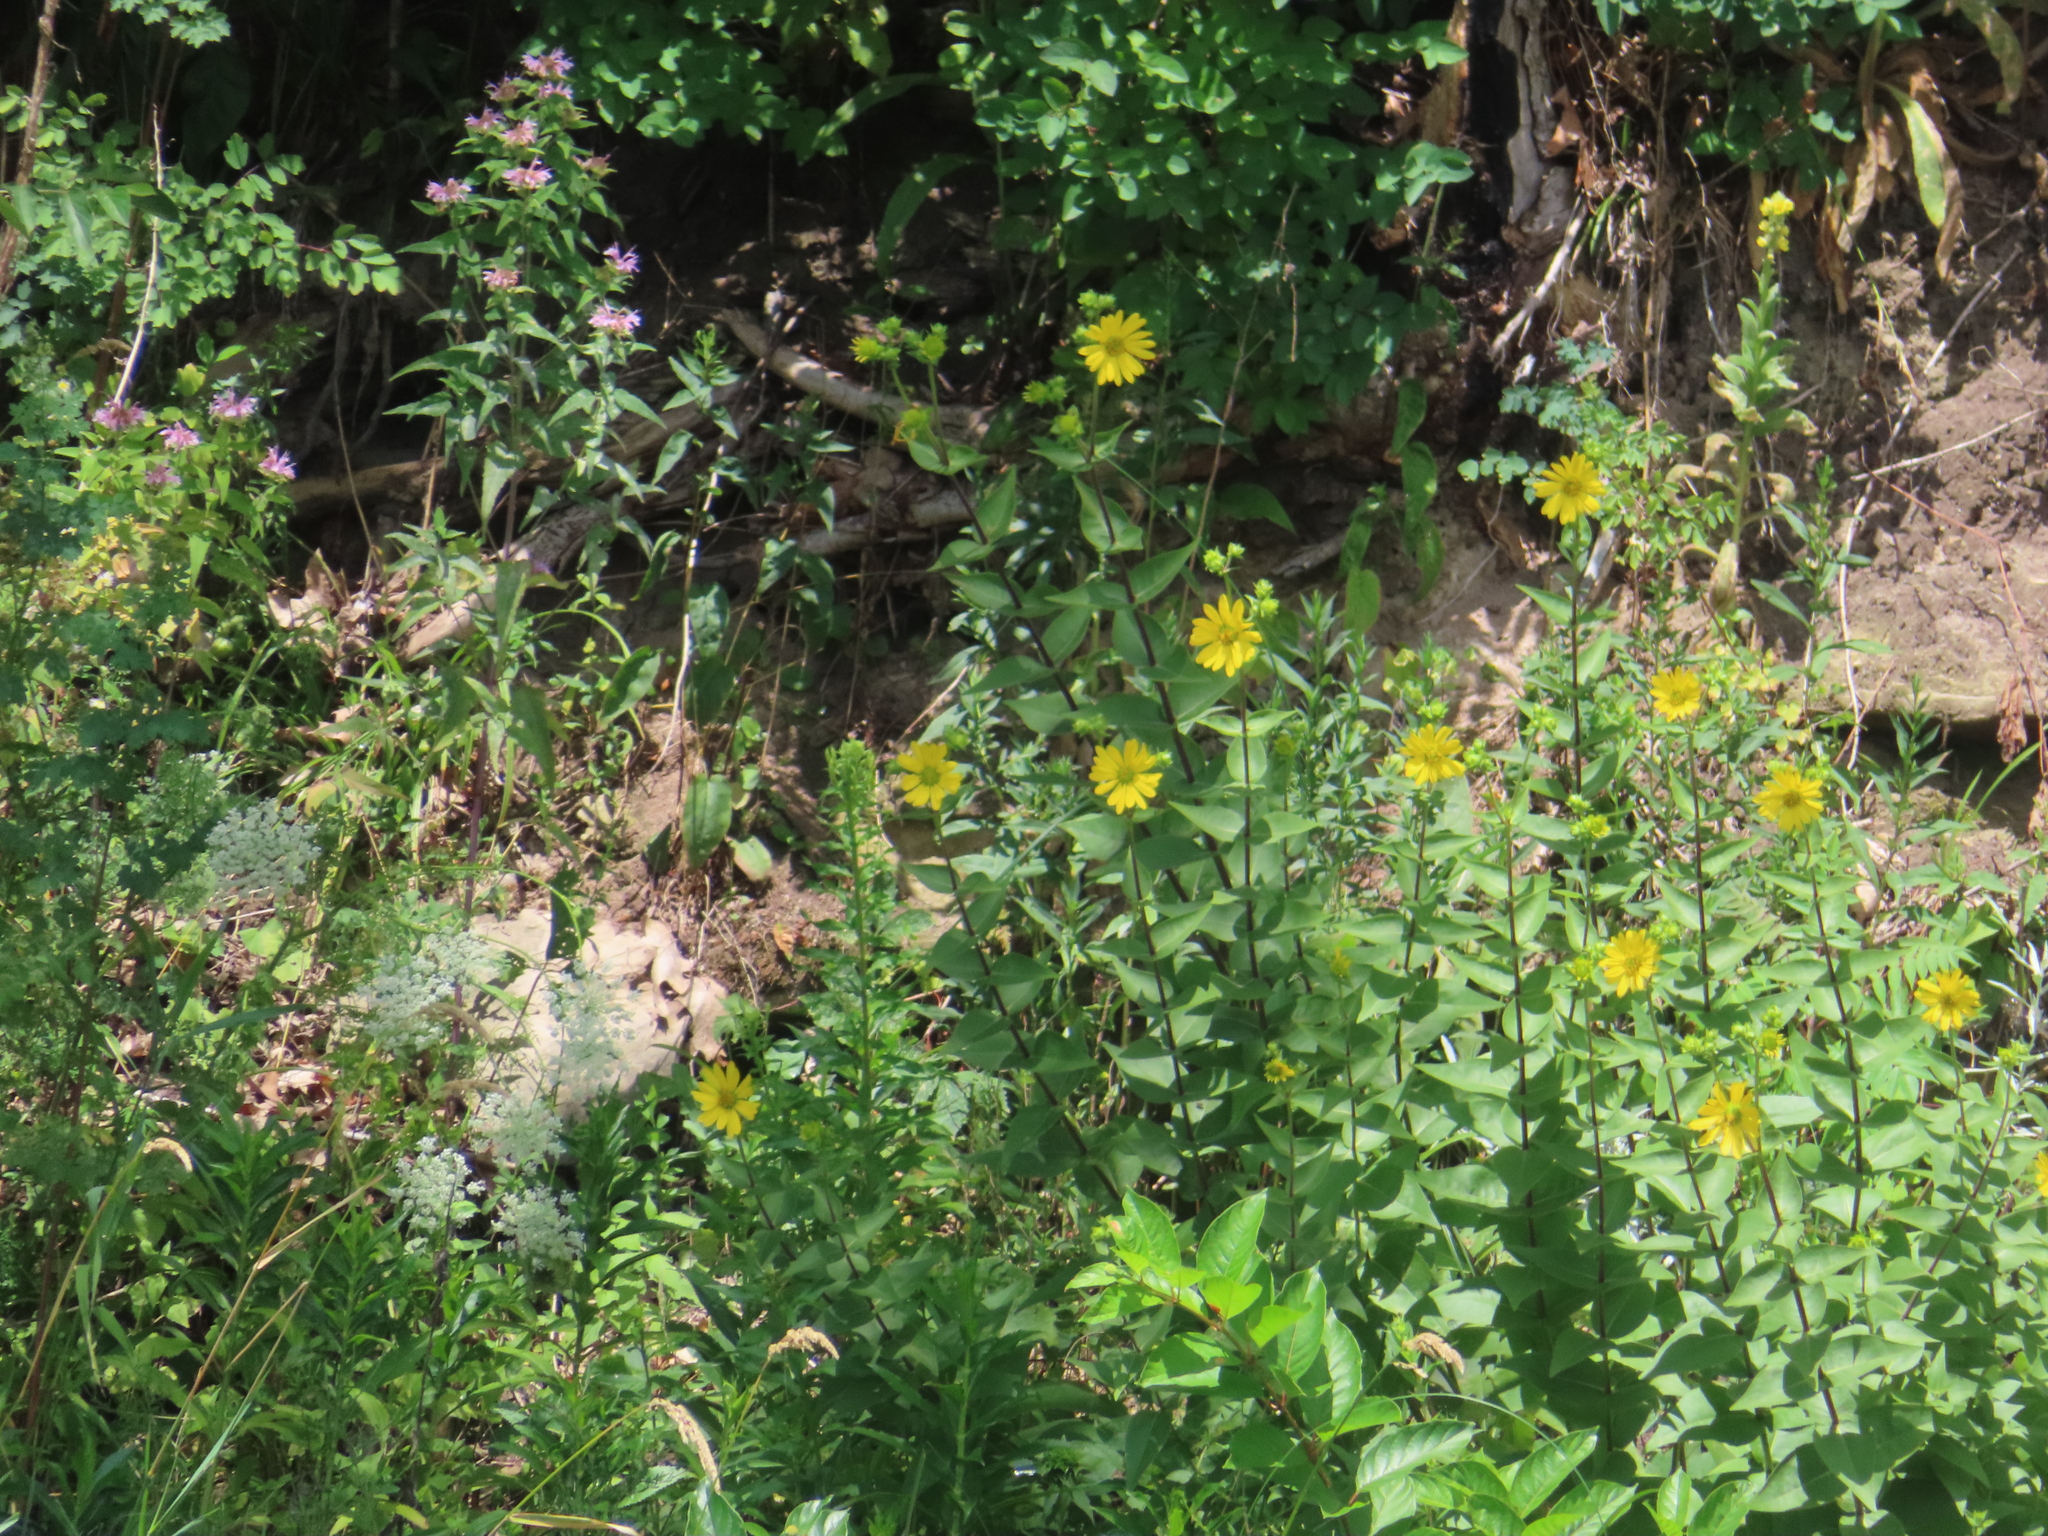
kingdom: Plantae
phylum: Tracheophyta
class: Magnoliopsida
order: Asterales
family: Asteraceae
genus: Silphium
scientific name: Silphium integrifolium
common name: Whole-leaf rosinweed
